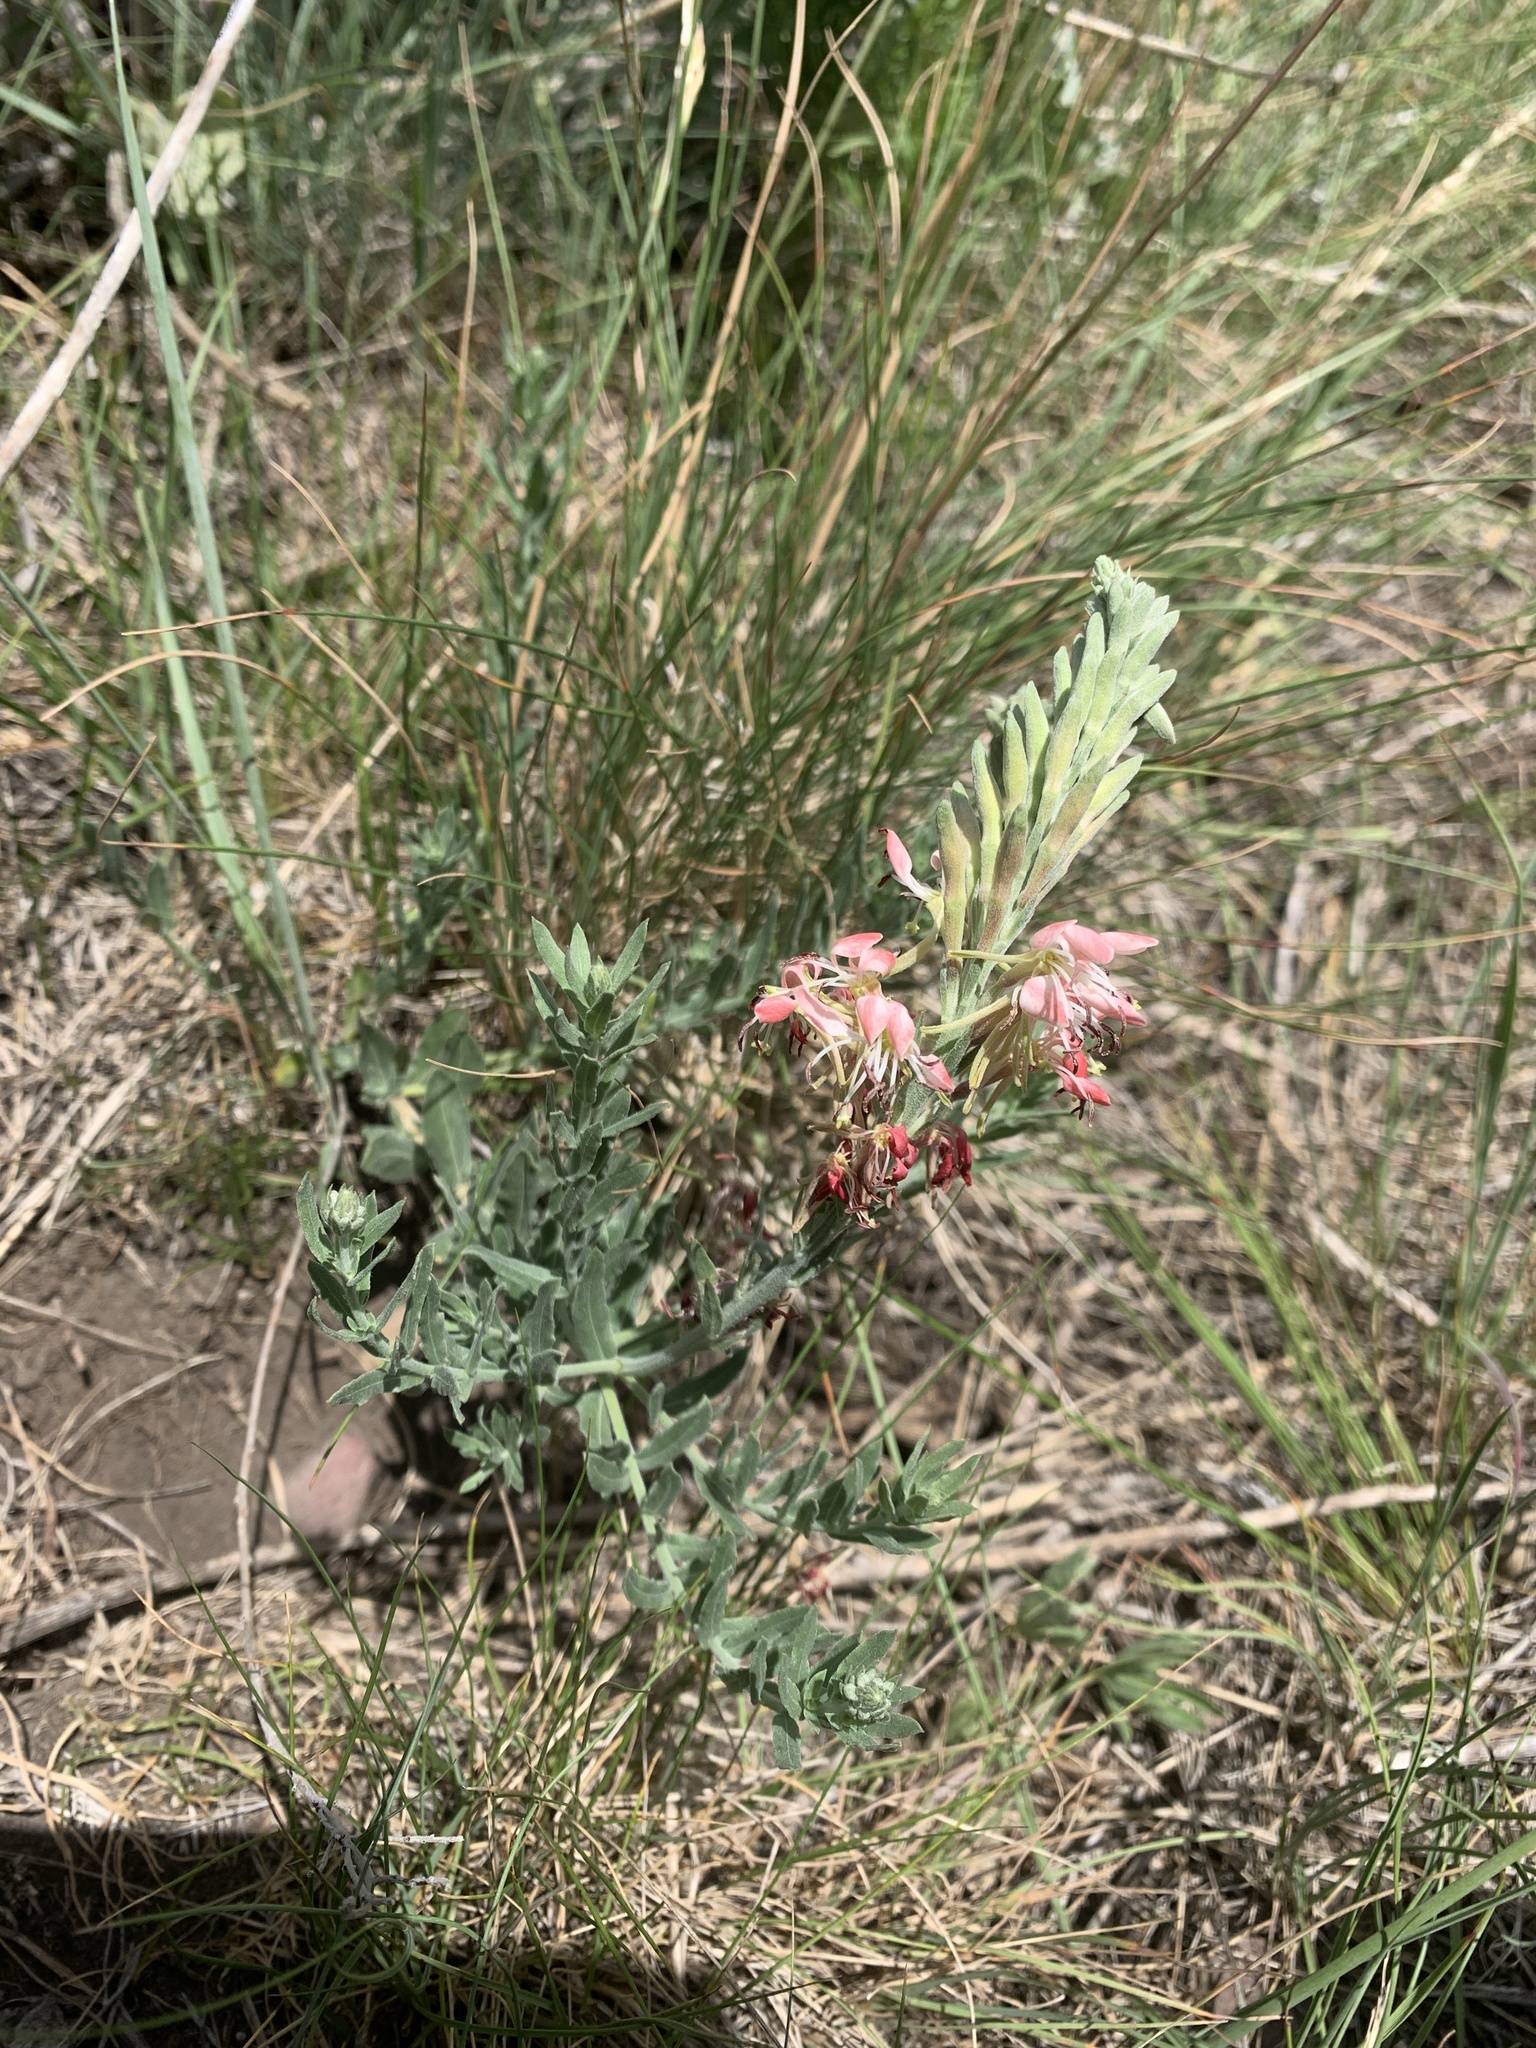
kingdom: Plantae
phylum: Tracheophyta
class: Magnoliopsida
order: Myrtales
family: Onagraceae
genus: Oenothera
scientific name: Oenothera suffrutescens
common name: Scarlet beeblossom
